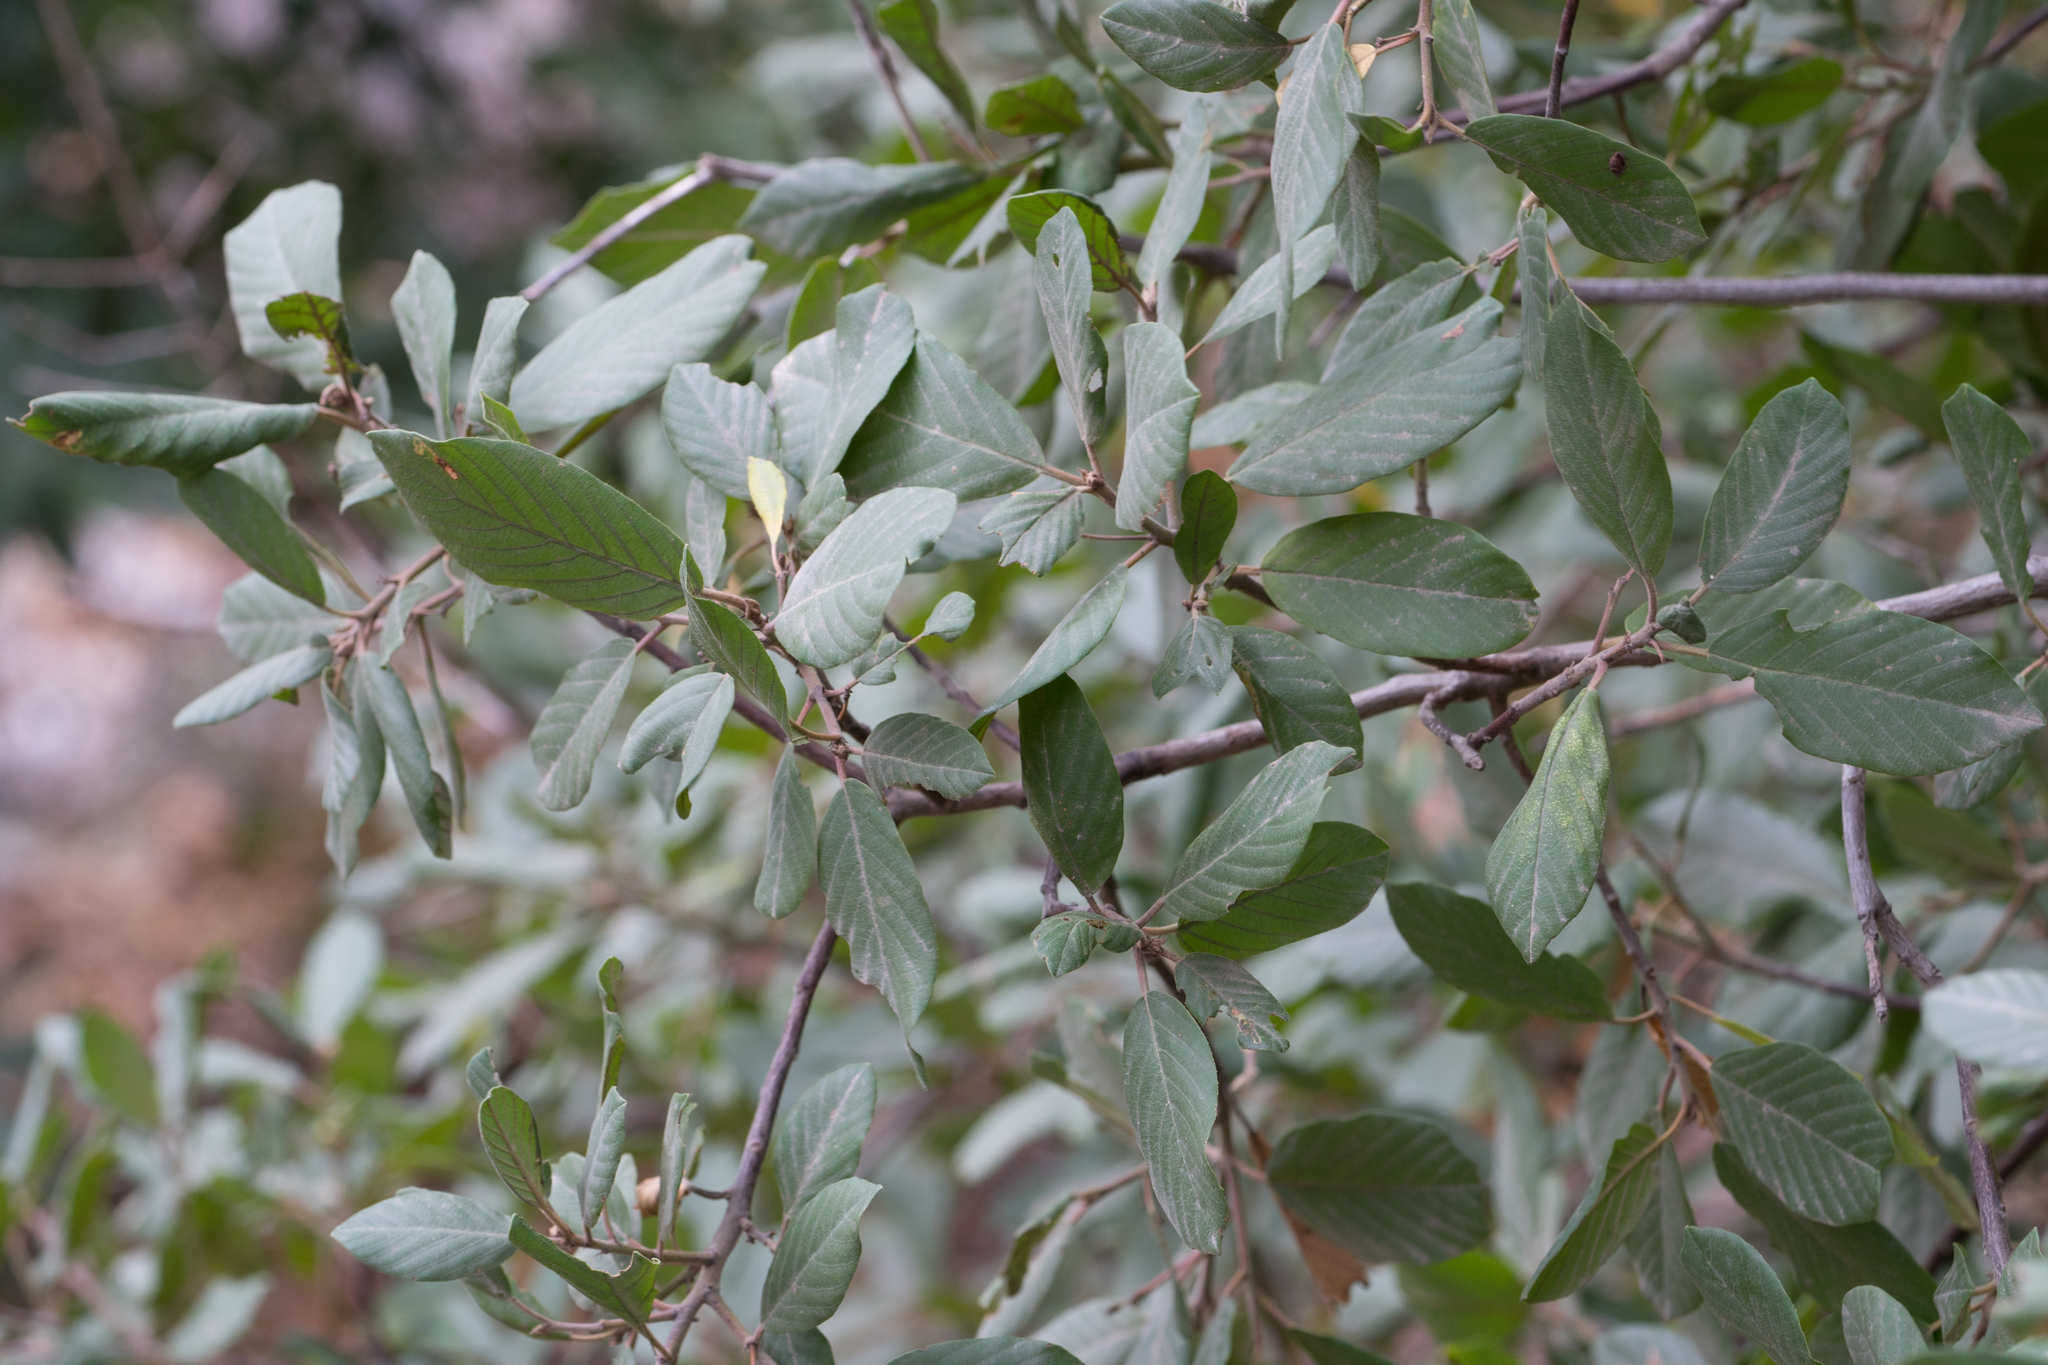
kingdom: Plantae
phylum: Tracheophyta
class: Magnoliopsida
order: Rosales
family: Rhamnaceae
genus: Frangula
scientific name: Frangula californica
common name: California buckthorn
